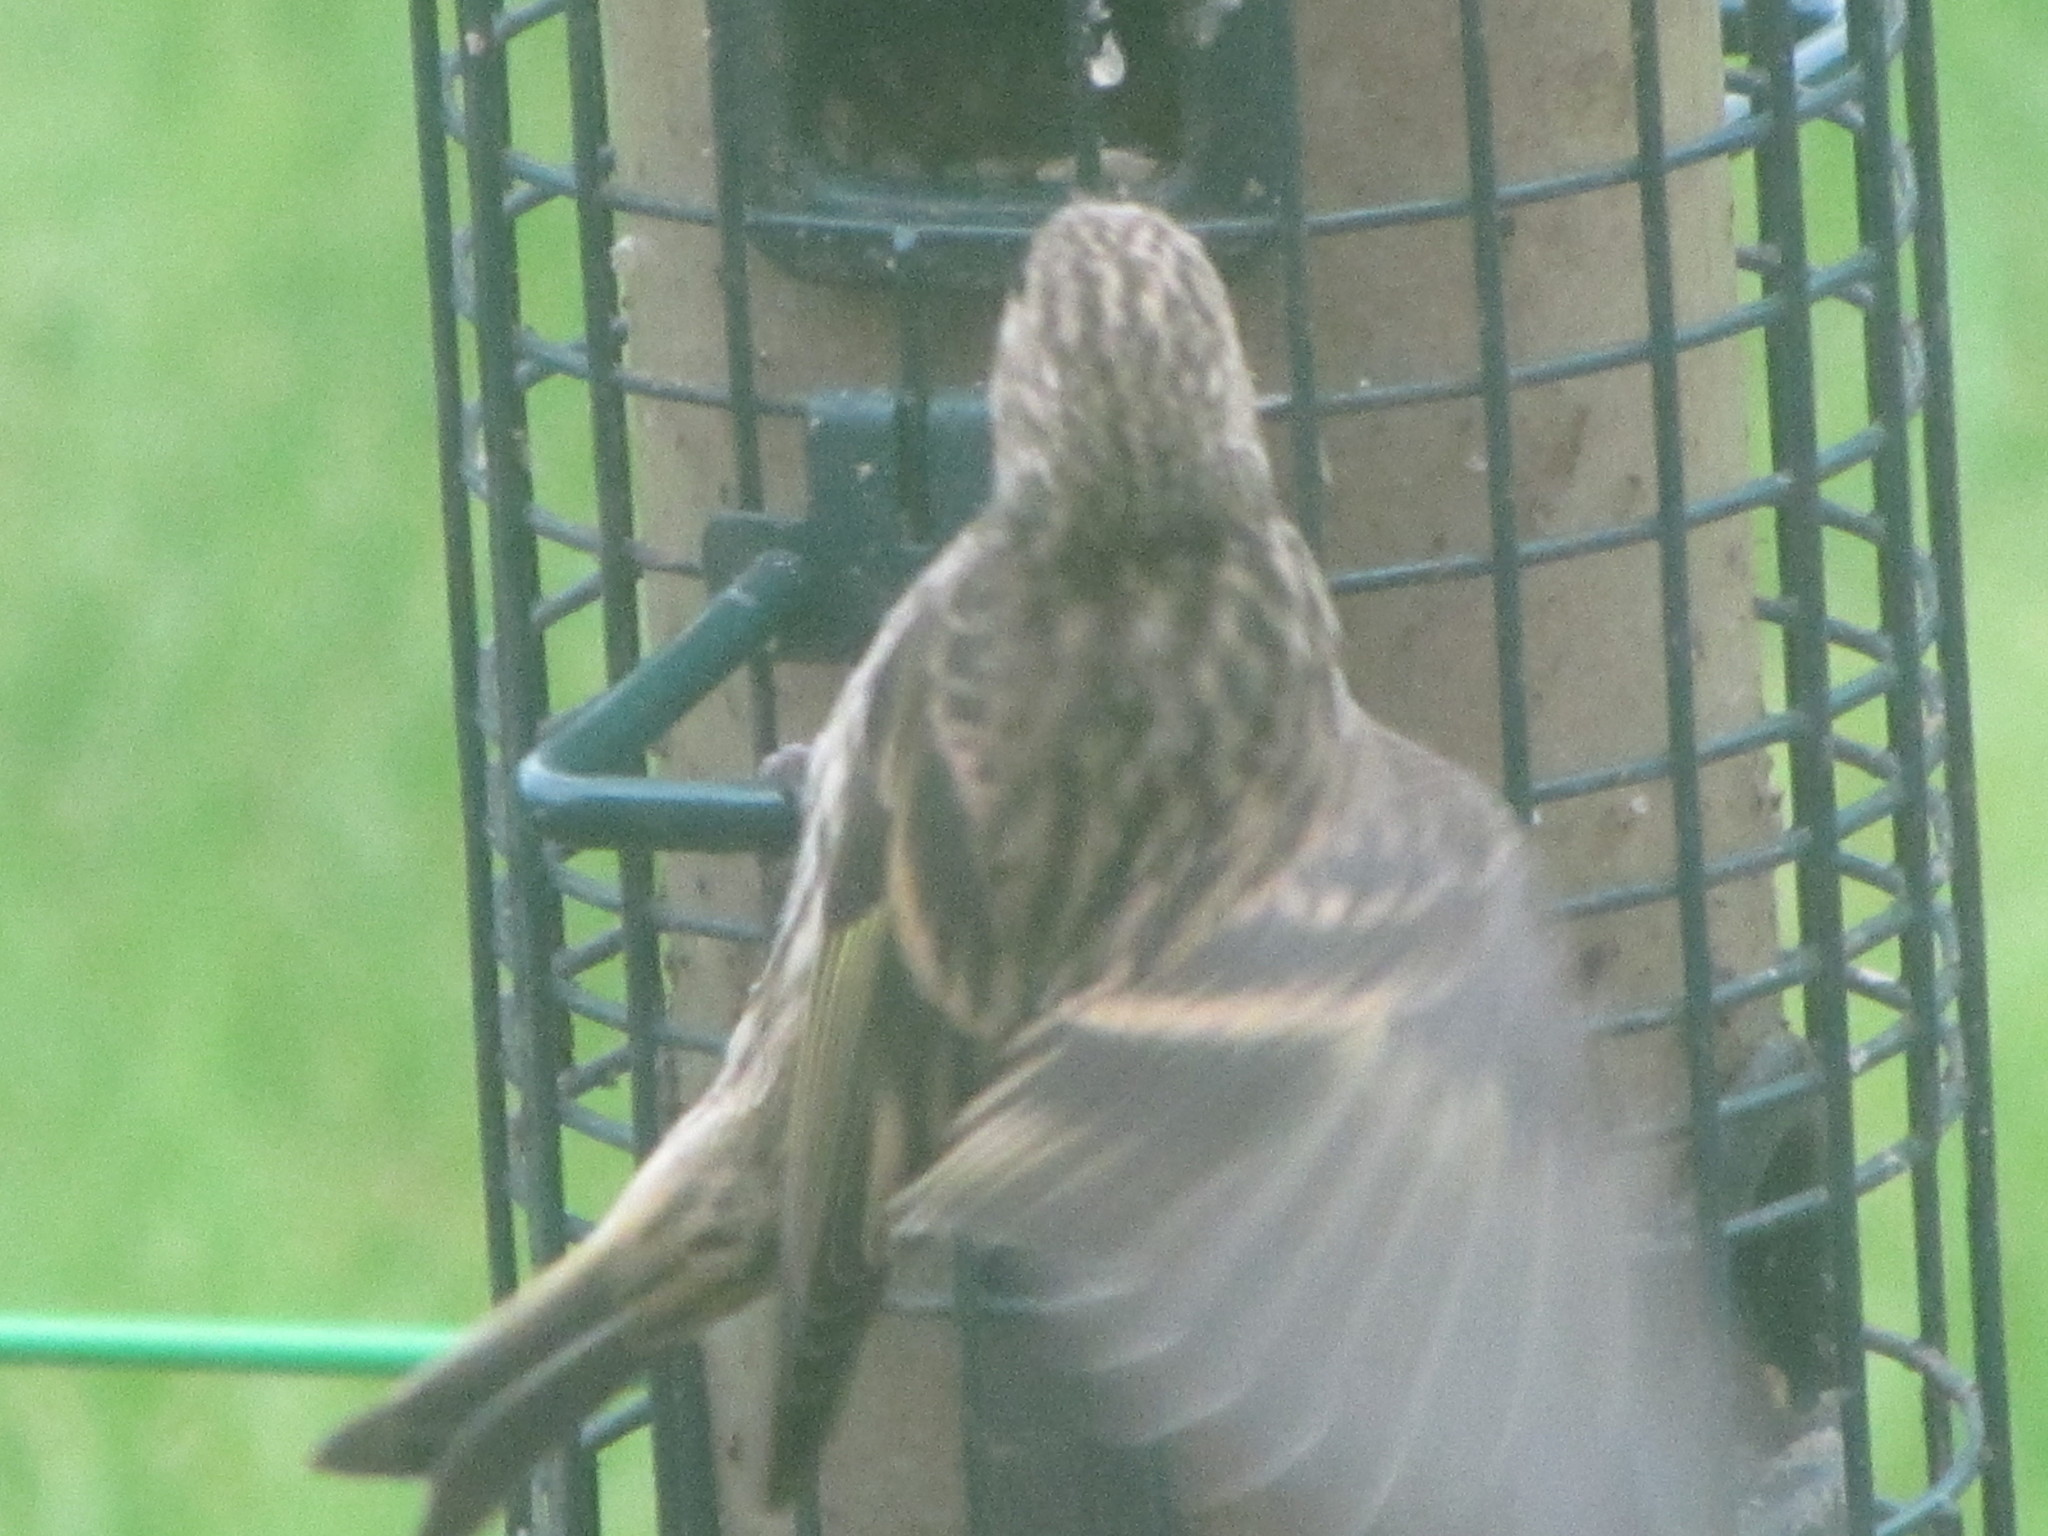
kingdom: Animalia
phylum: Chordata
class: Aves
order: Passeriformes
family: Fringillidae
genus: Spinus
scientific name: Spinus pinus
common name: Pine siskin
